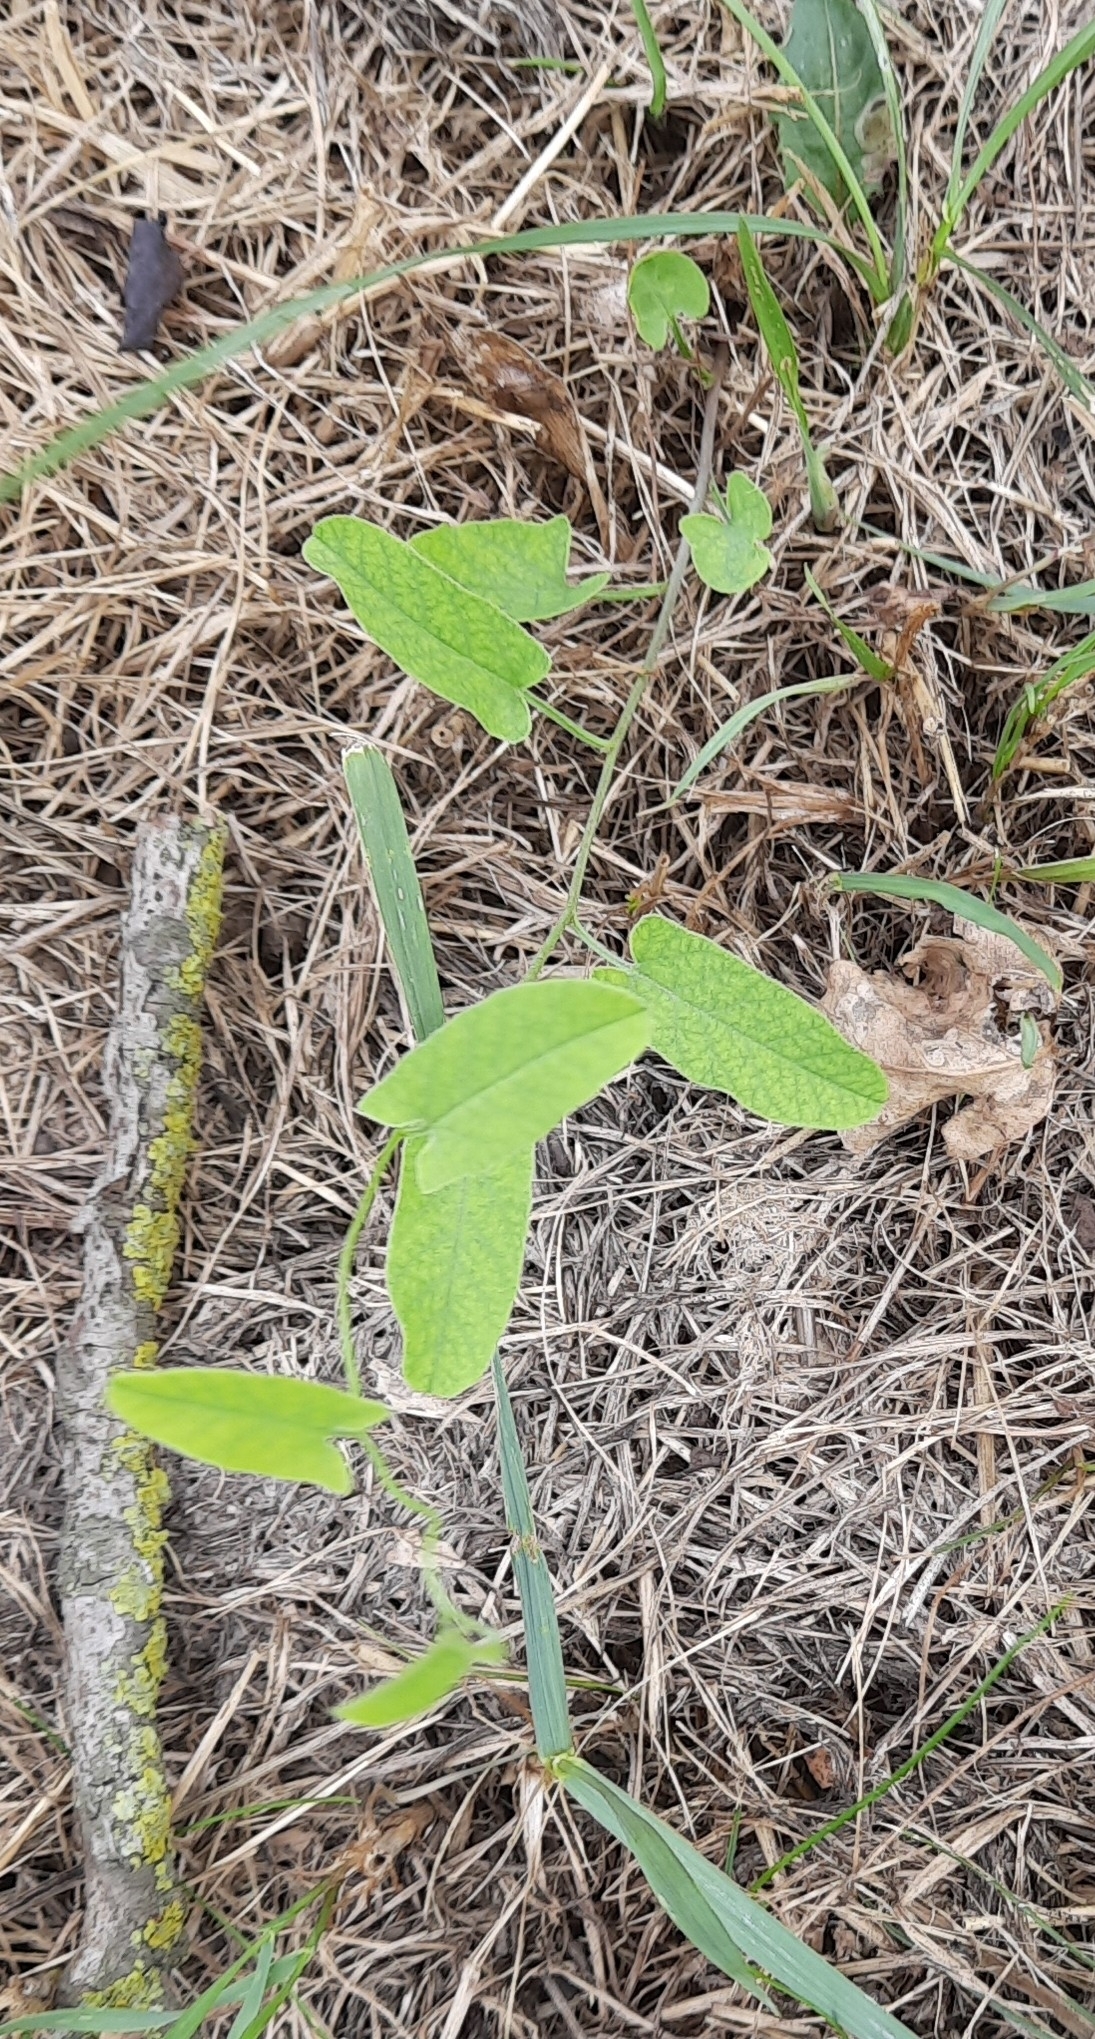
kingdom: Plantae
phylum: Tracheophyta
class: Magnoliopsida
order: Solanales
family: Convolvulaceae
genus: Convolvulus
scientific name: Convolvulus arvensis
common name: Field bindweed
